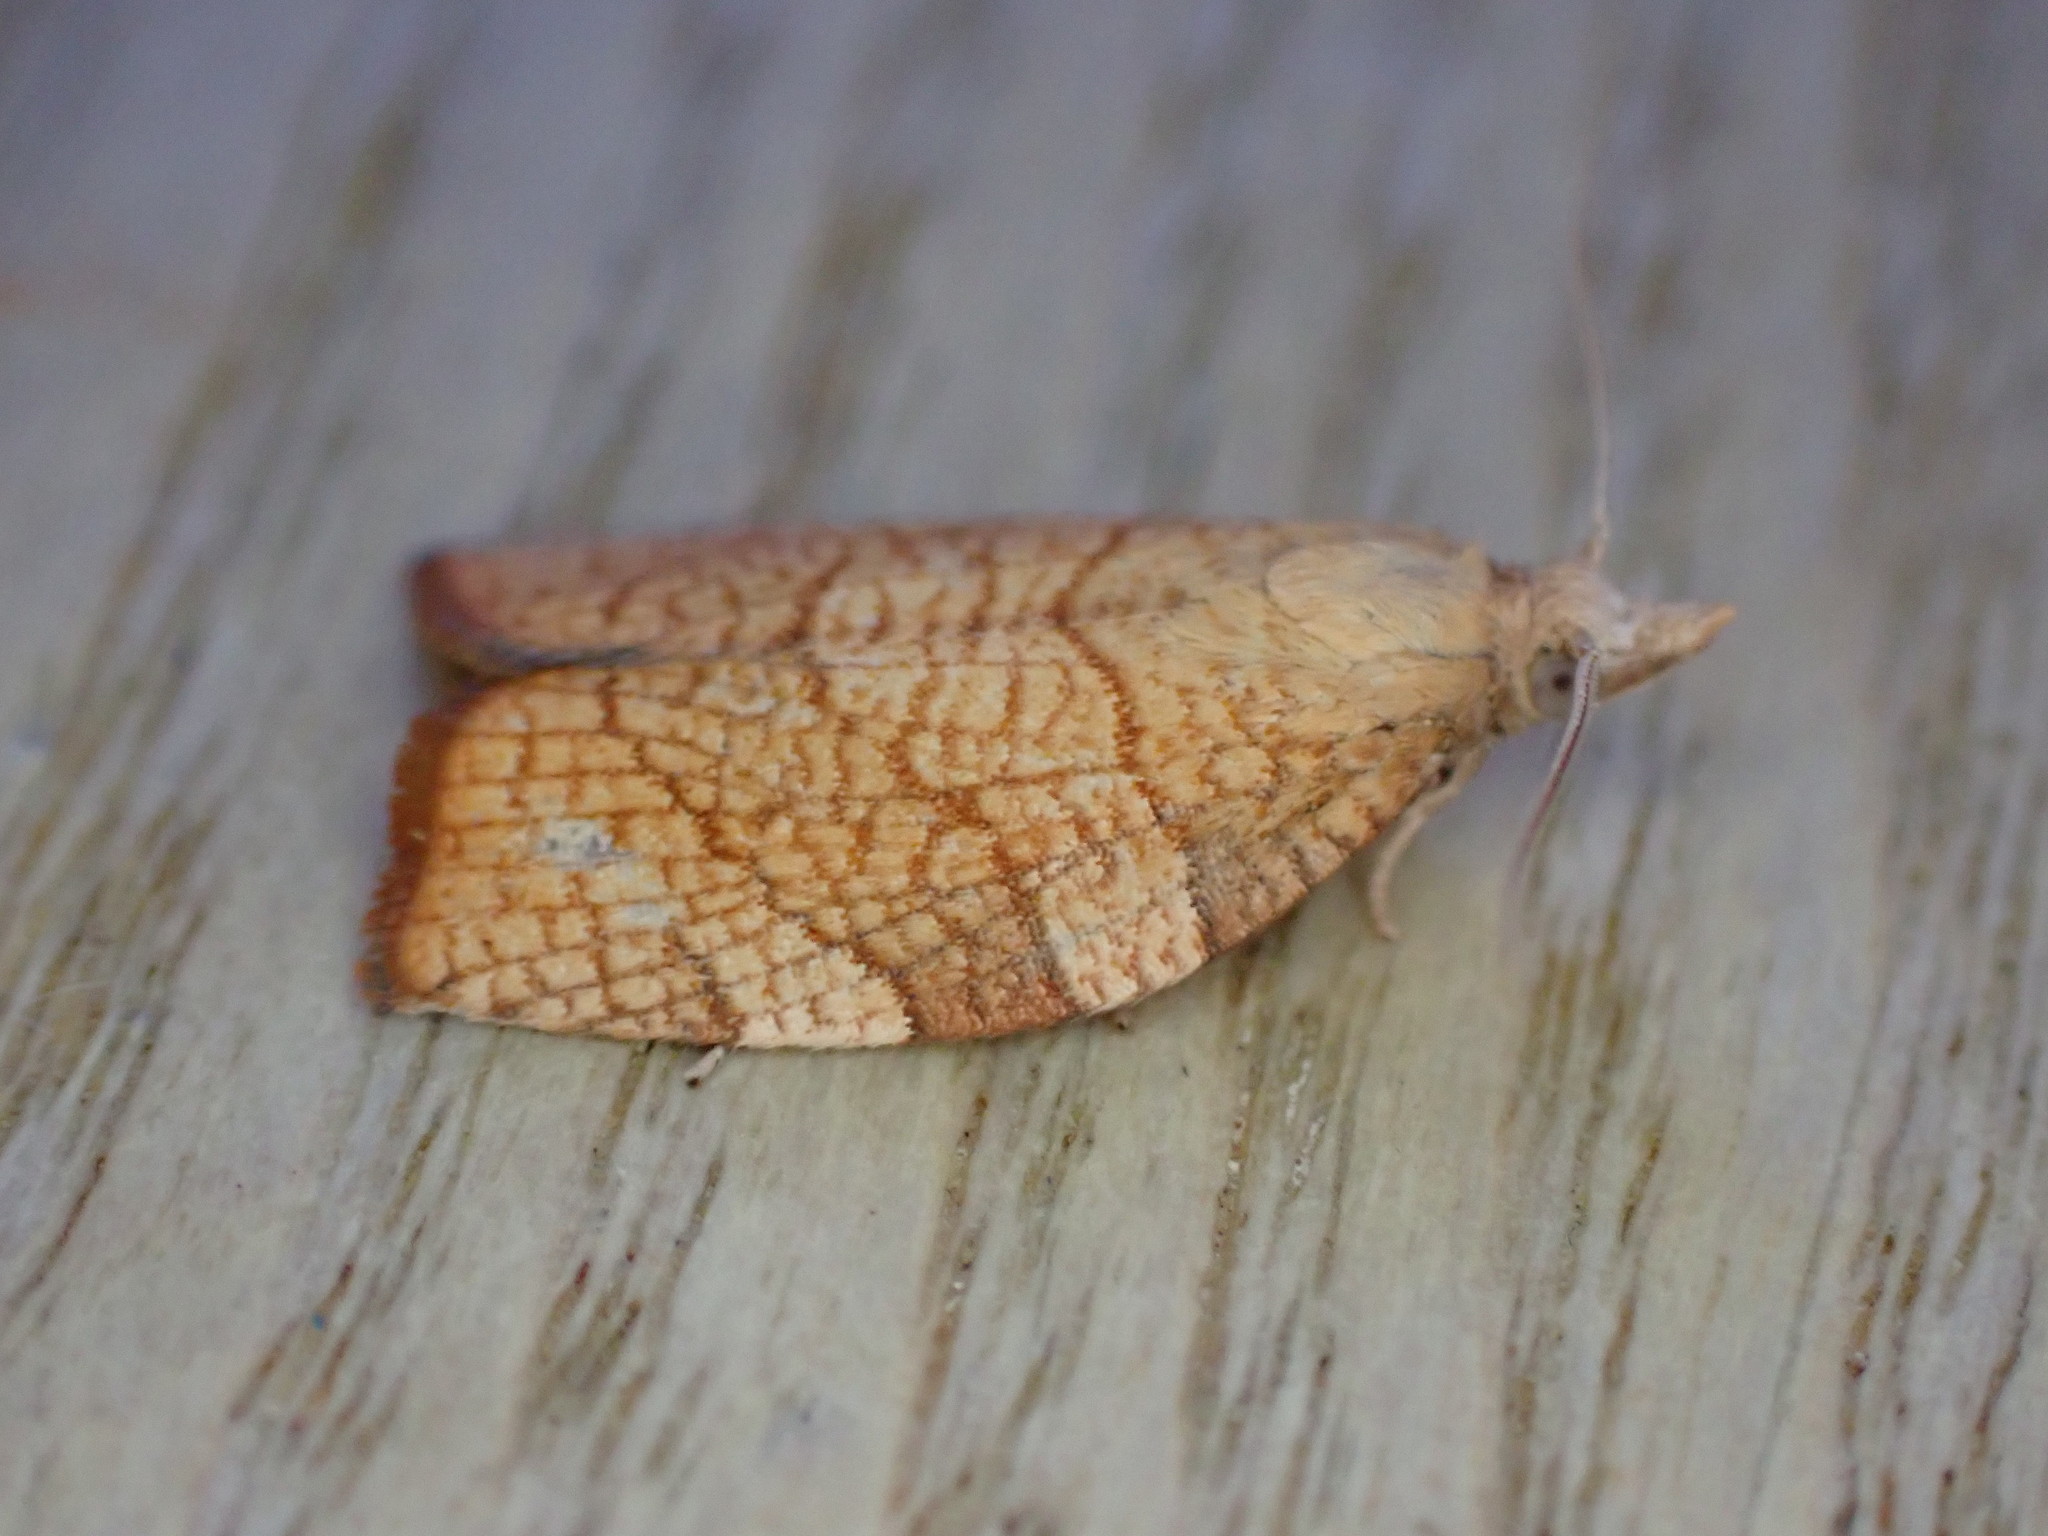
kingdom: Animalia
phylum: Arthropoda
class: Insecta
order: Lepidoptera
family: Tortricidae
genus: Pandemis
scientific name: Pandemis corylana
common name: Chequered fruit-tree tortrix
